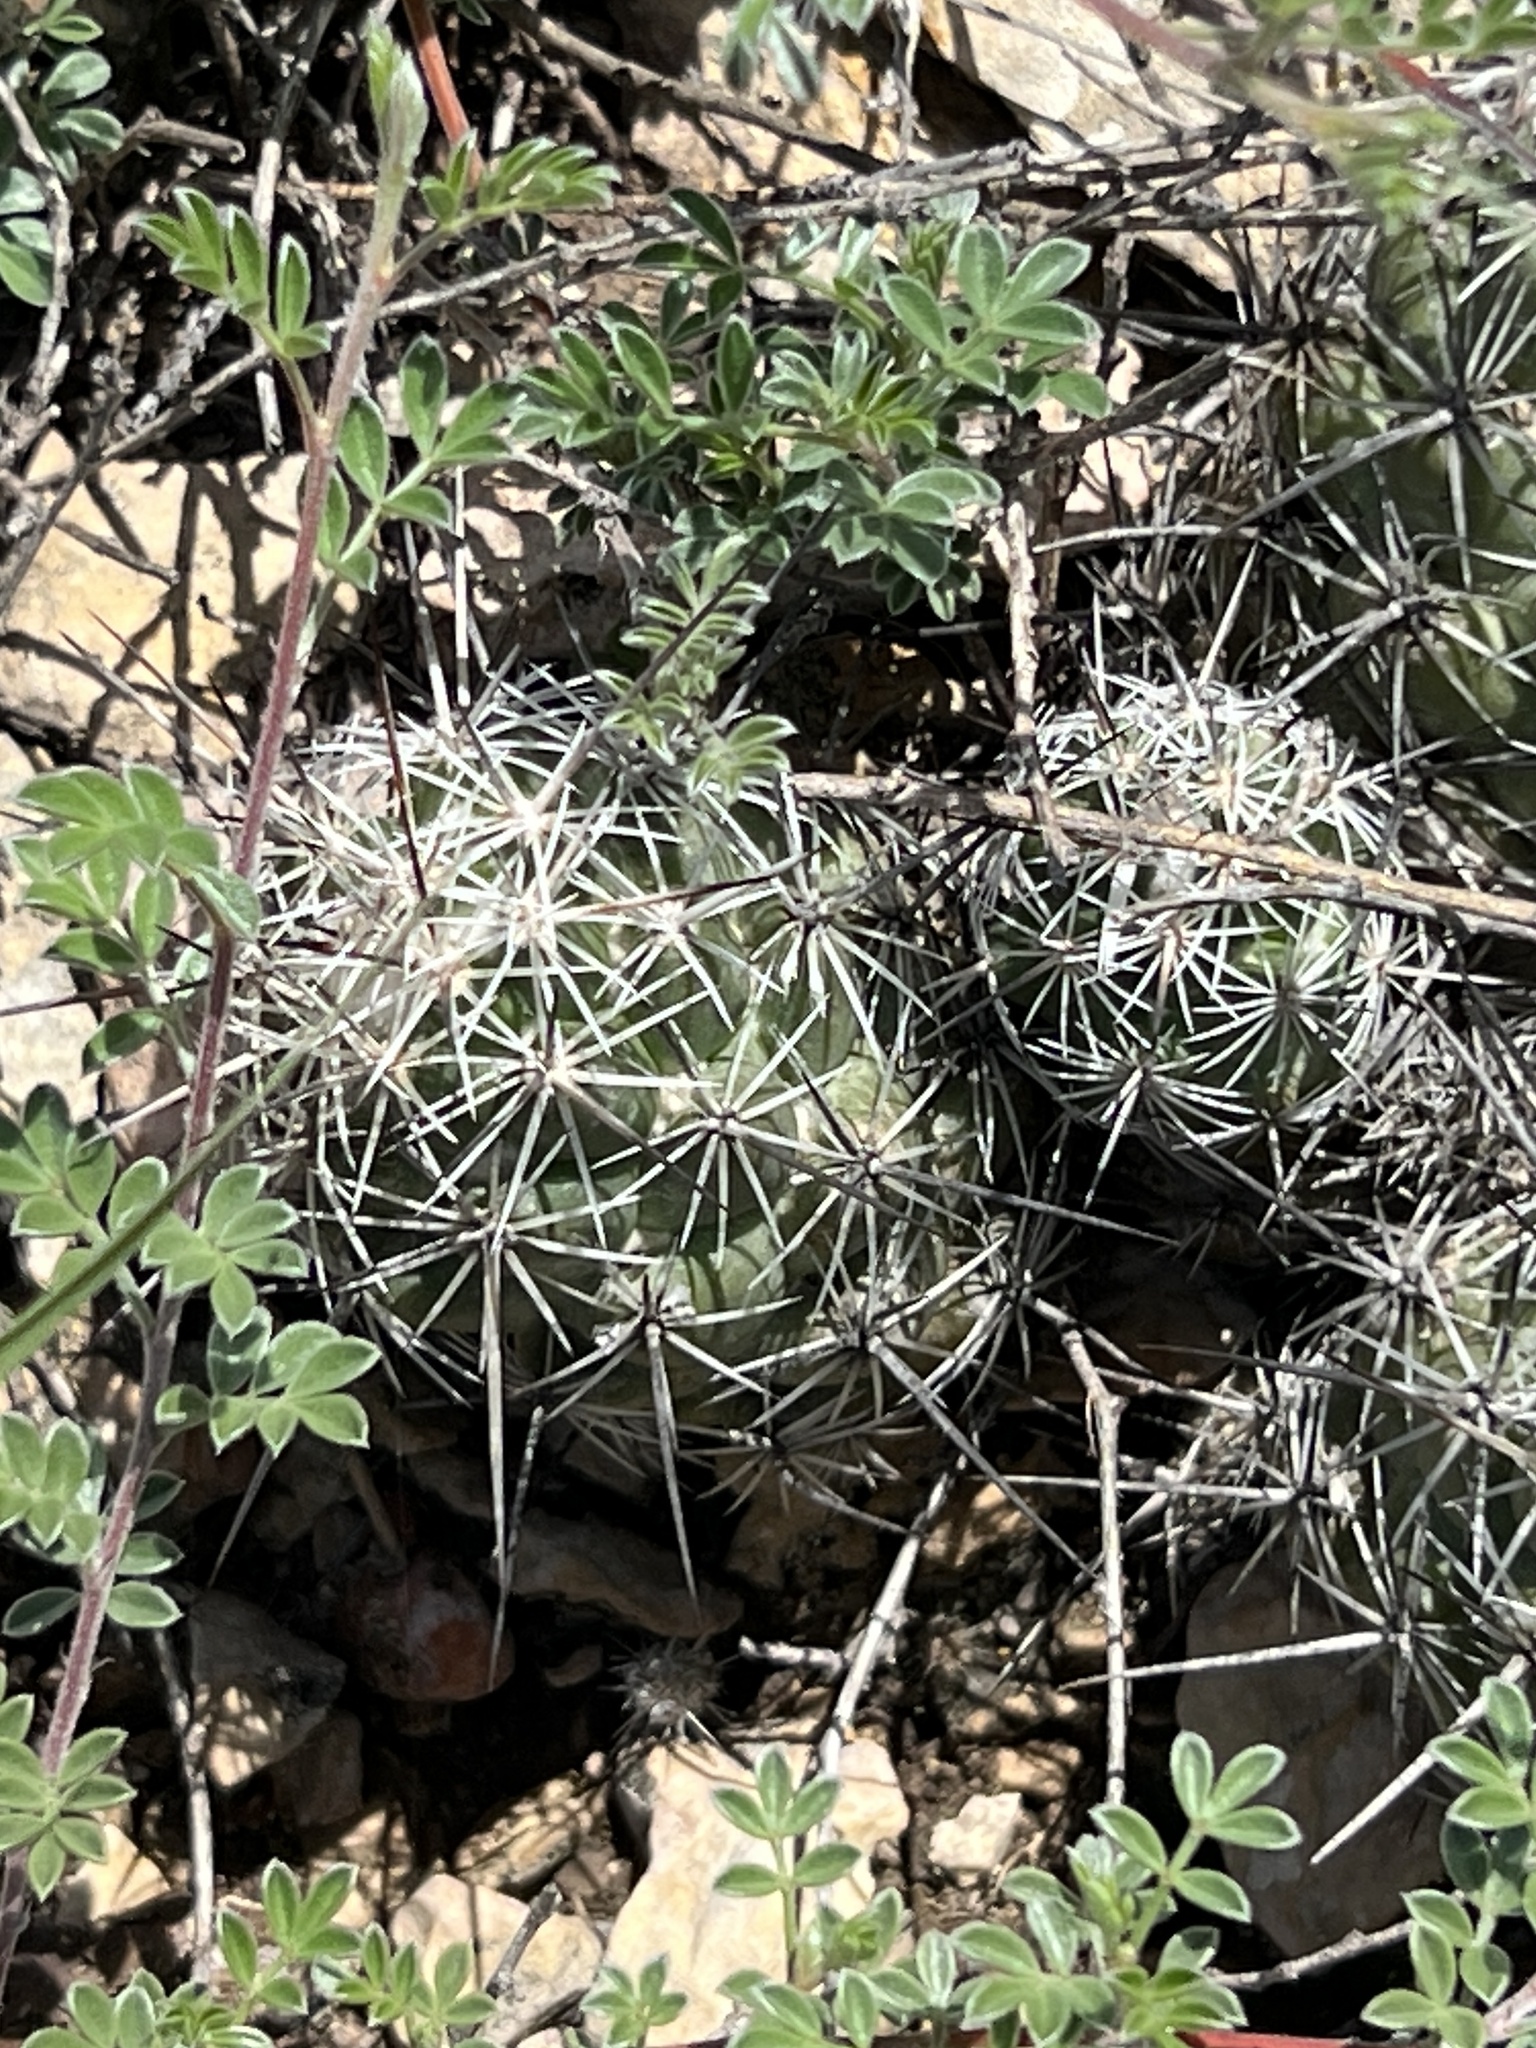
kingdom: Plantae
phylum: Tracheophyta
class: Magnoliopsida
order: Caryophyllales
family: Cactaceae
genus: Cochemiea
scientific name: Cochemiea conoidea
